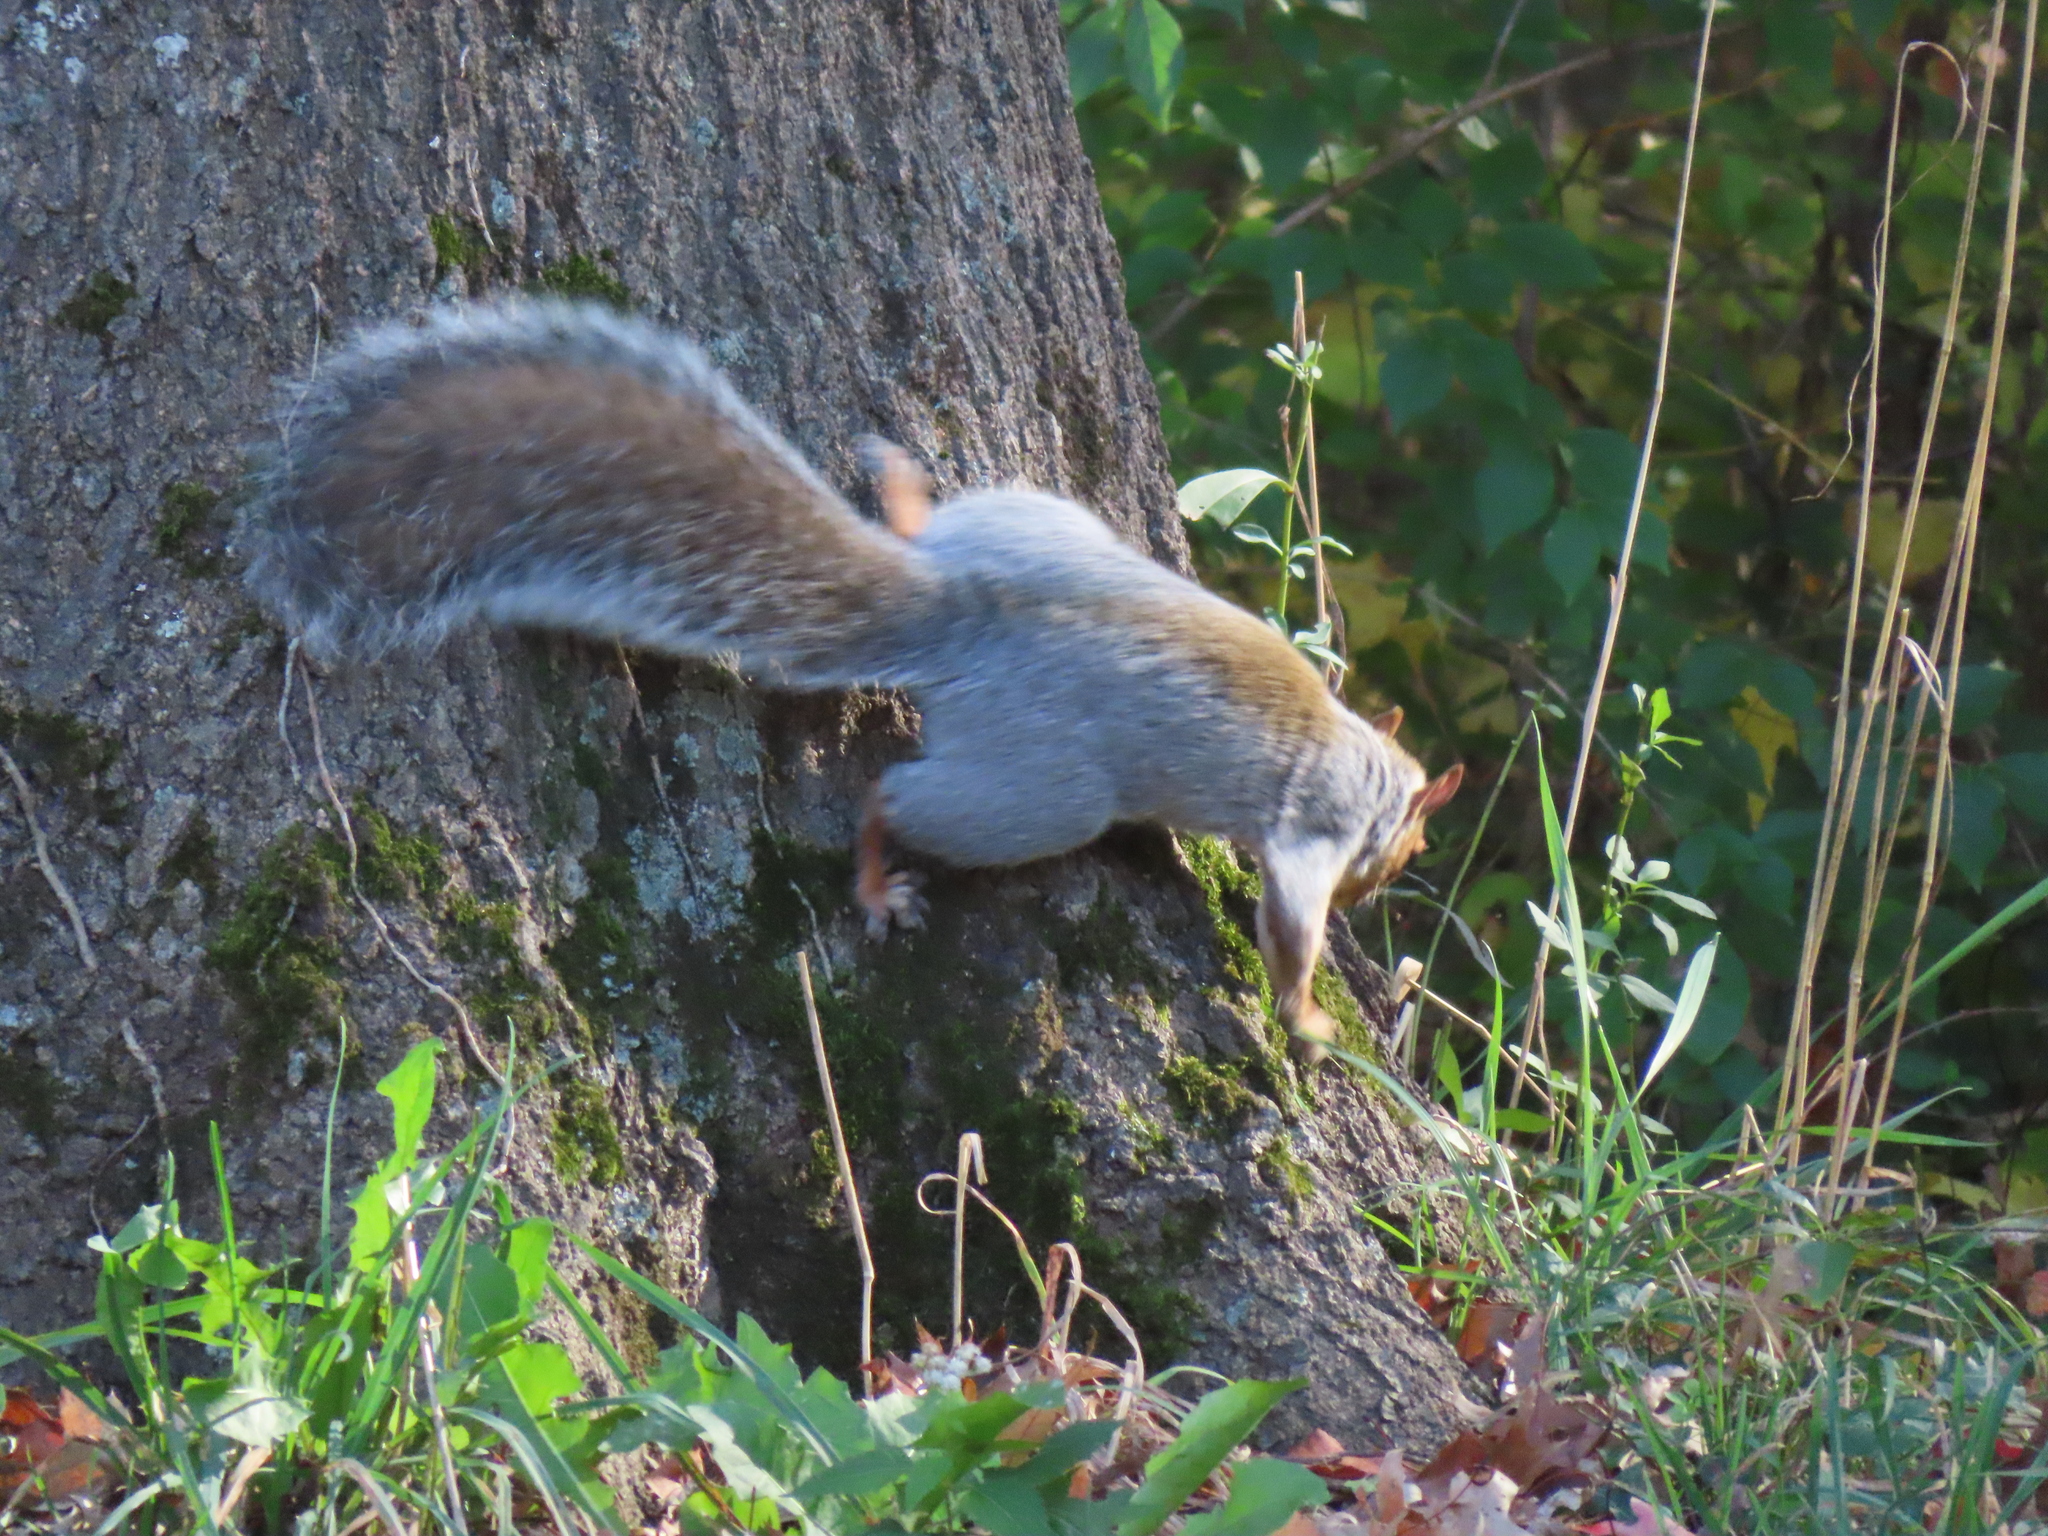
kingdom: Animalia
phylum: Chordata
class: Mammalia
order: Rodentia
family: Sciuridae
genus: Sciurus
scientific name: Sciurus carolinensis
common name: Eastern gray squirrel
